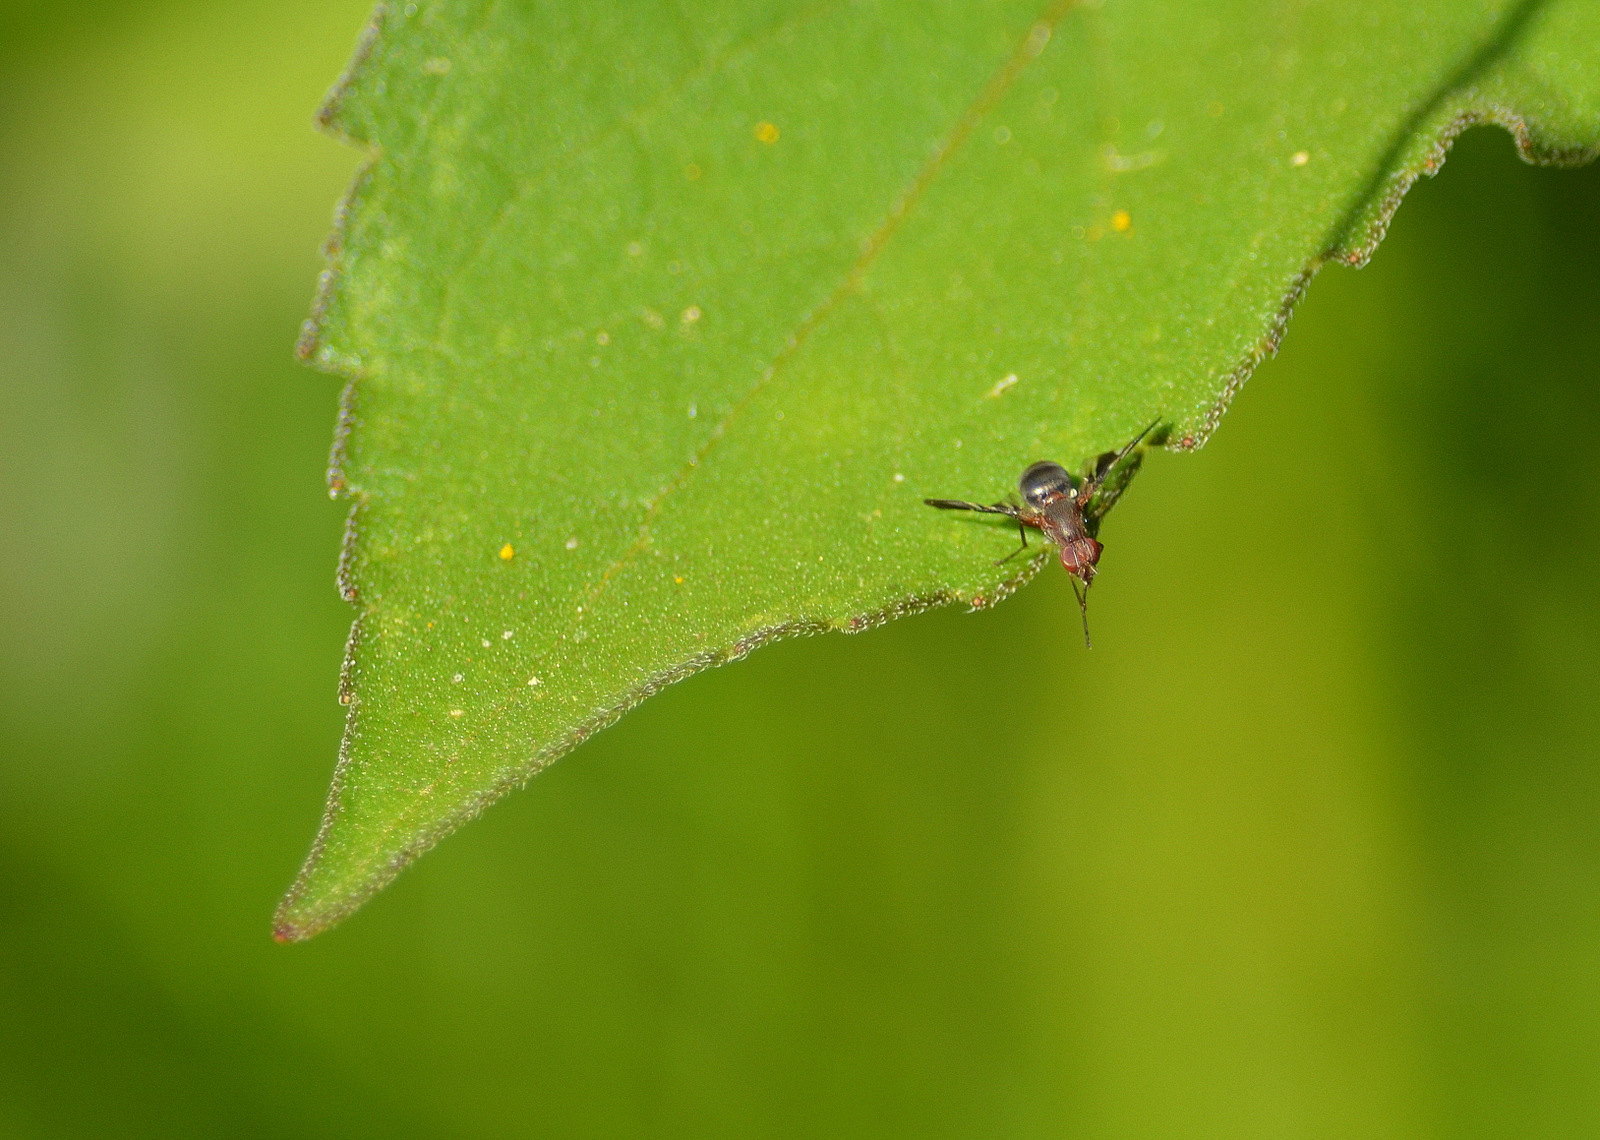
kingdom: Animalia
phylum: Arthropoda
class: Insecta
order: Diptera
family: Ulidiidae
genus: Delphinia
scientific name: Delphinia picta
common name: Common picture-winged fly
